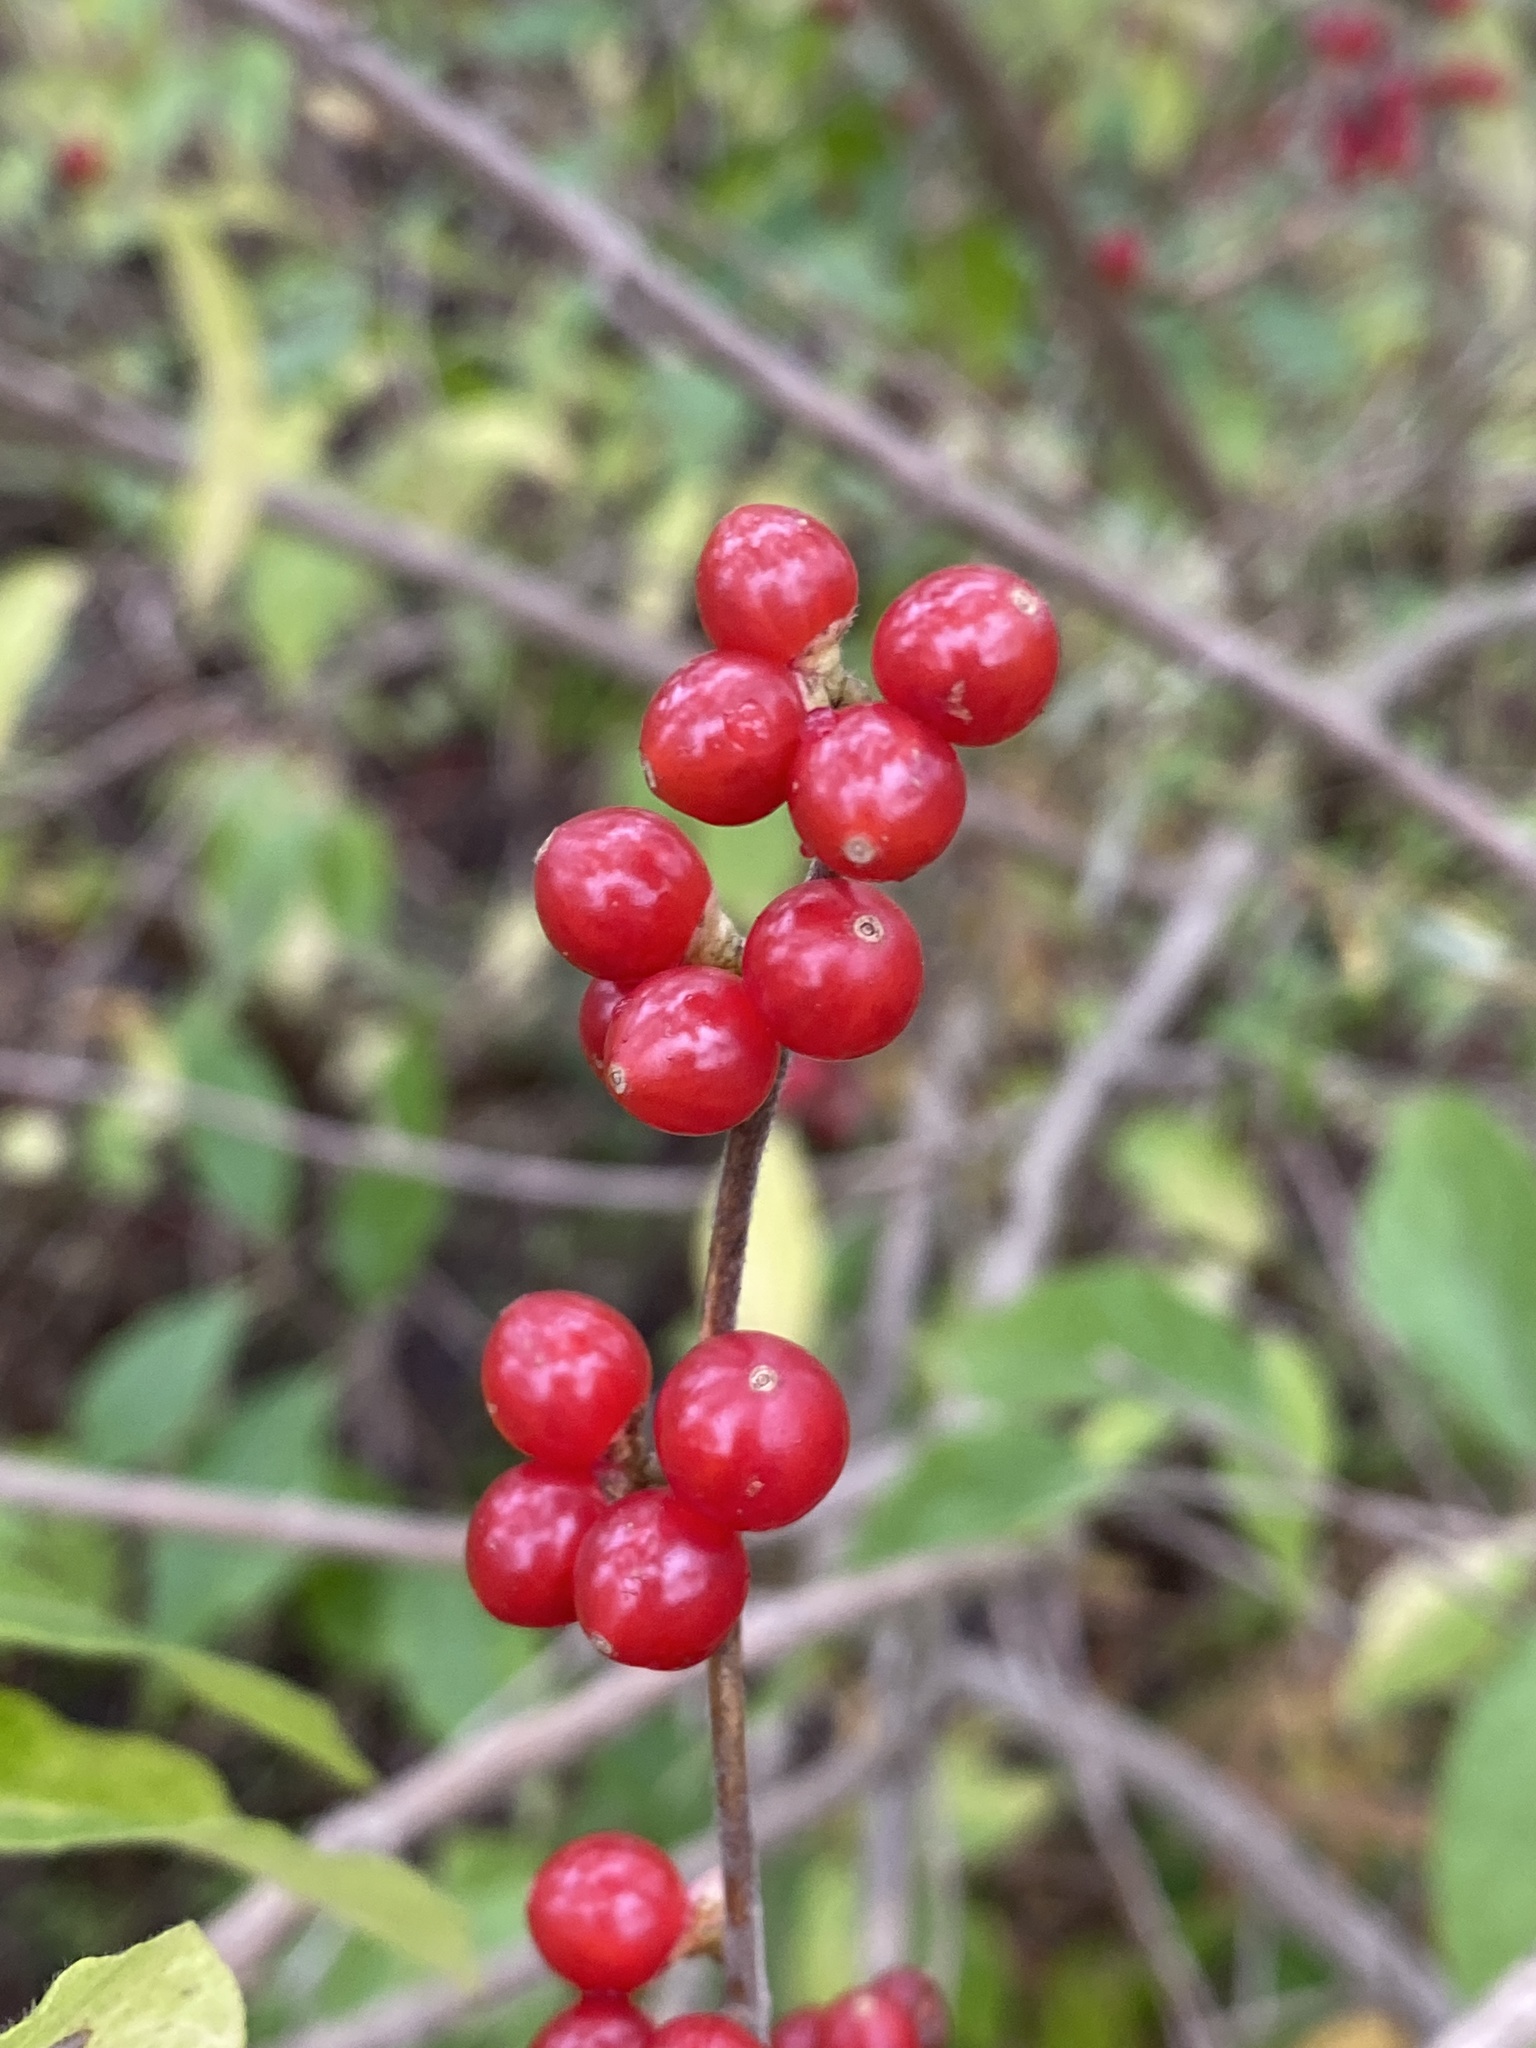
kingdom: Plantae
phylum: Tracheophyta
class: Magnoliopsida
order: Dipsacales
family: Caprifoliaceae
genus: Lonicera
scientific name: Lonicera maackii
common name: Amur honeysuckle
